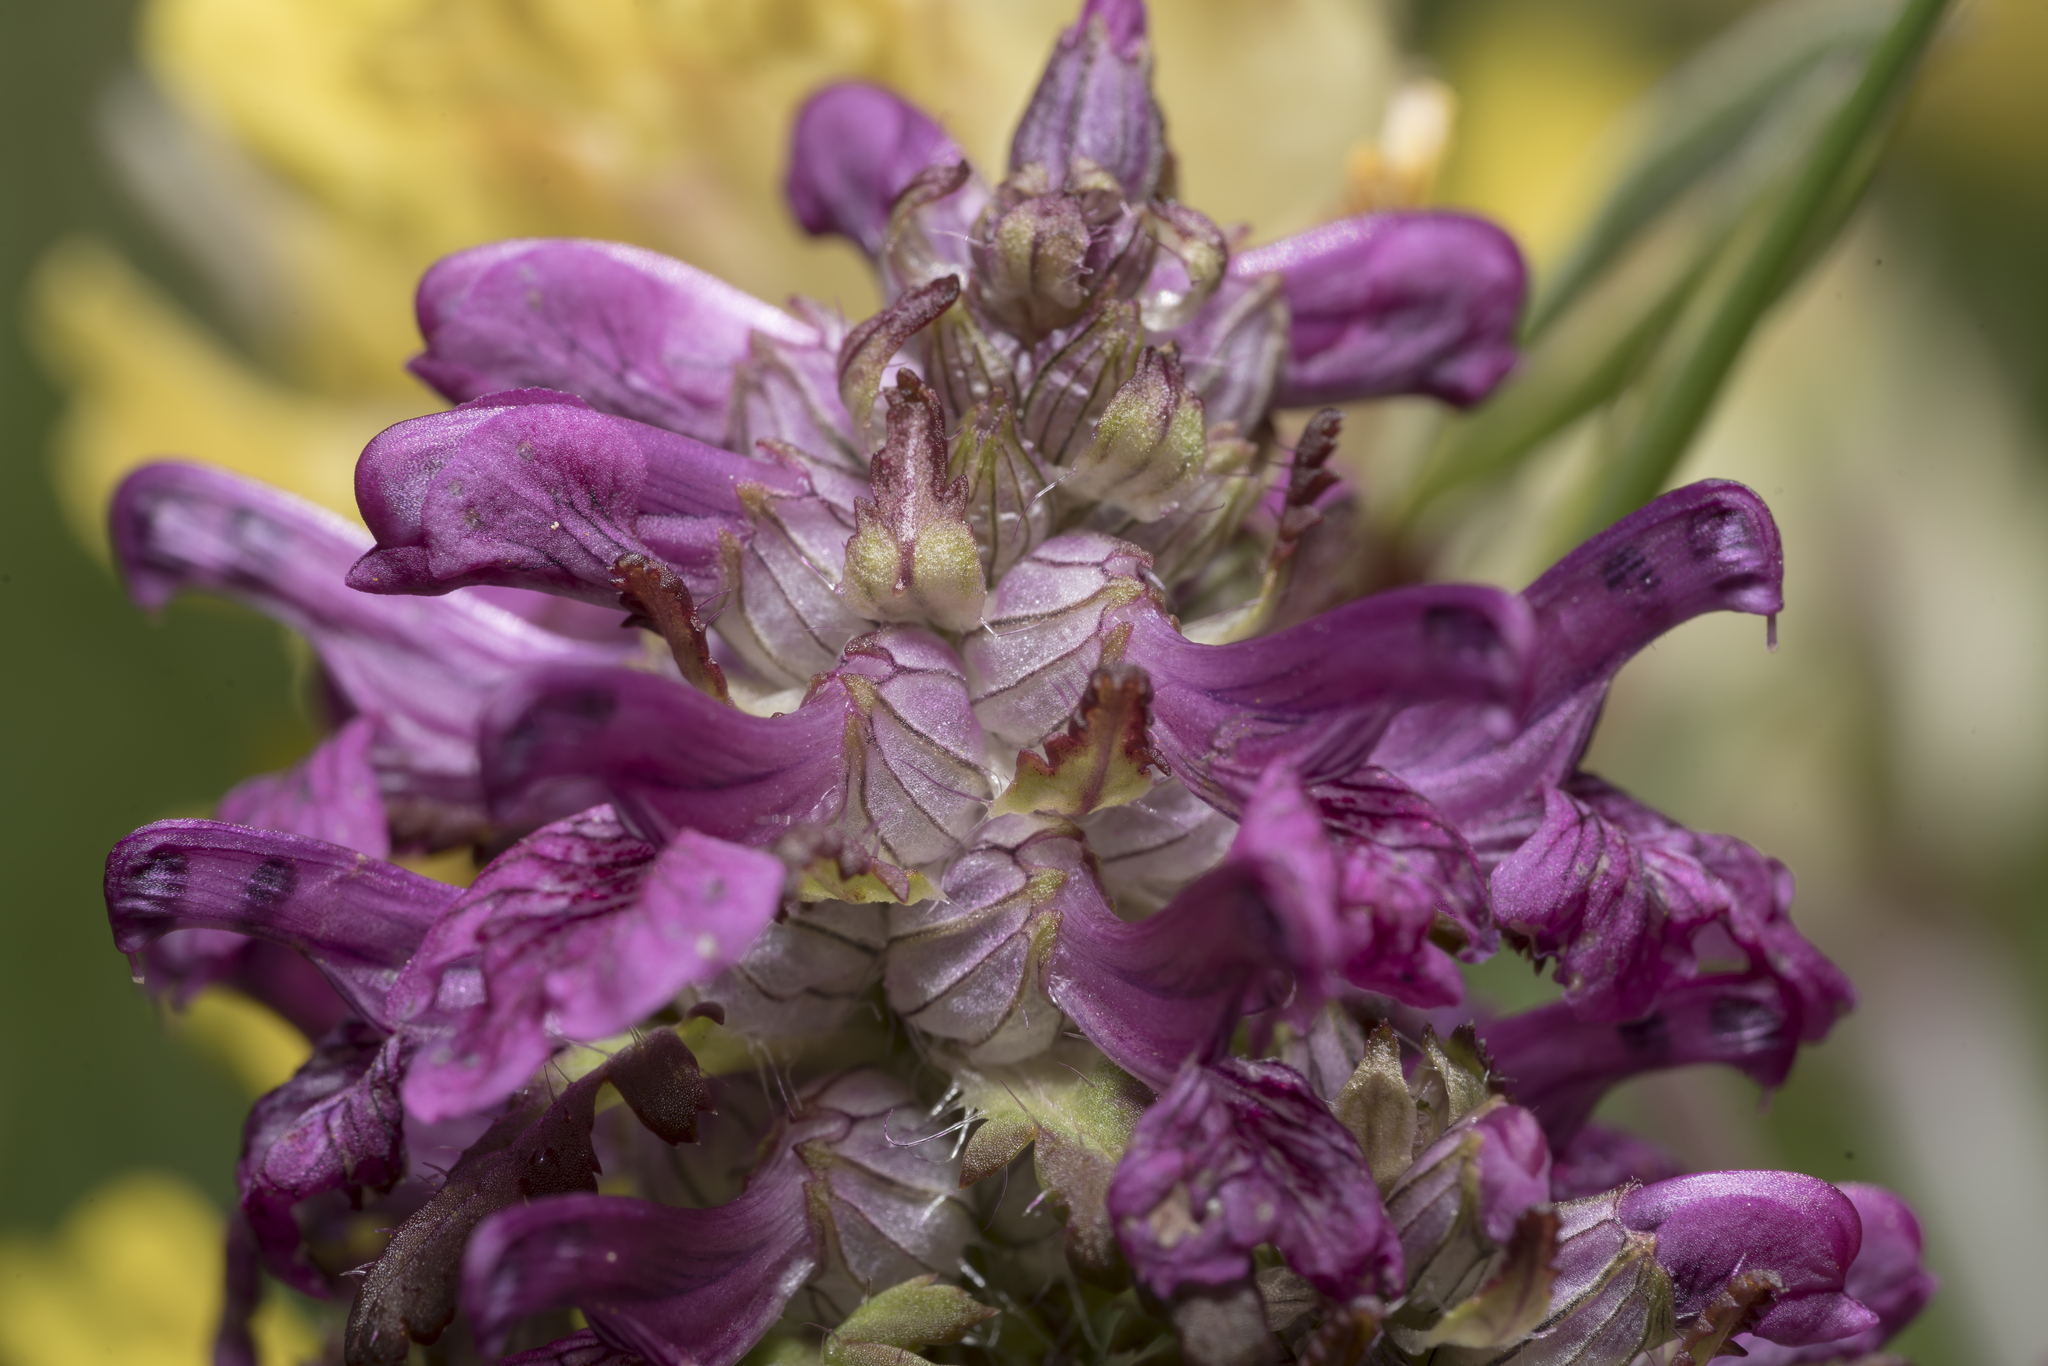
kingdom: Plantae
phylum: Tracheophyta
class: Magnoliopsida
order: Lamiales
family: Orobanchaceae
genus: Pedicularis
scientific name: Pedicularis verticillata
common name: Whorled lousewort
